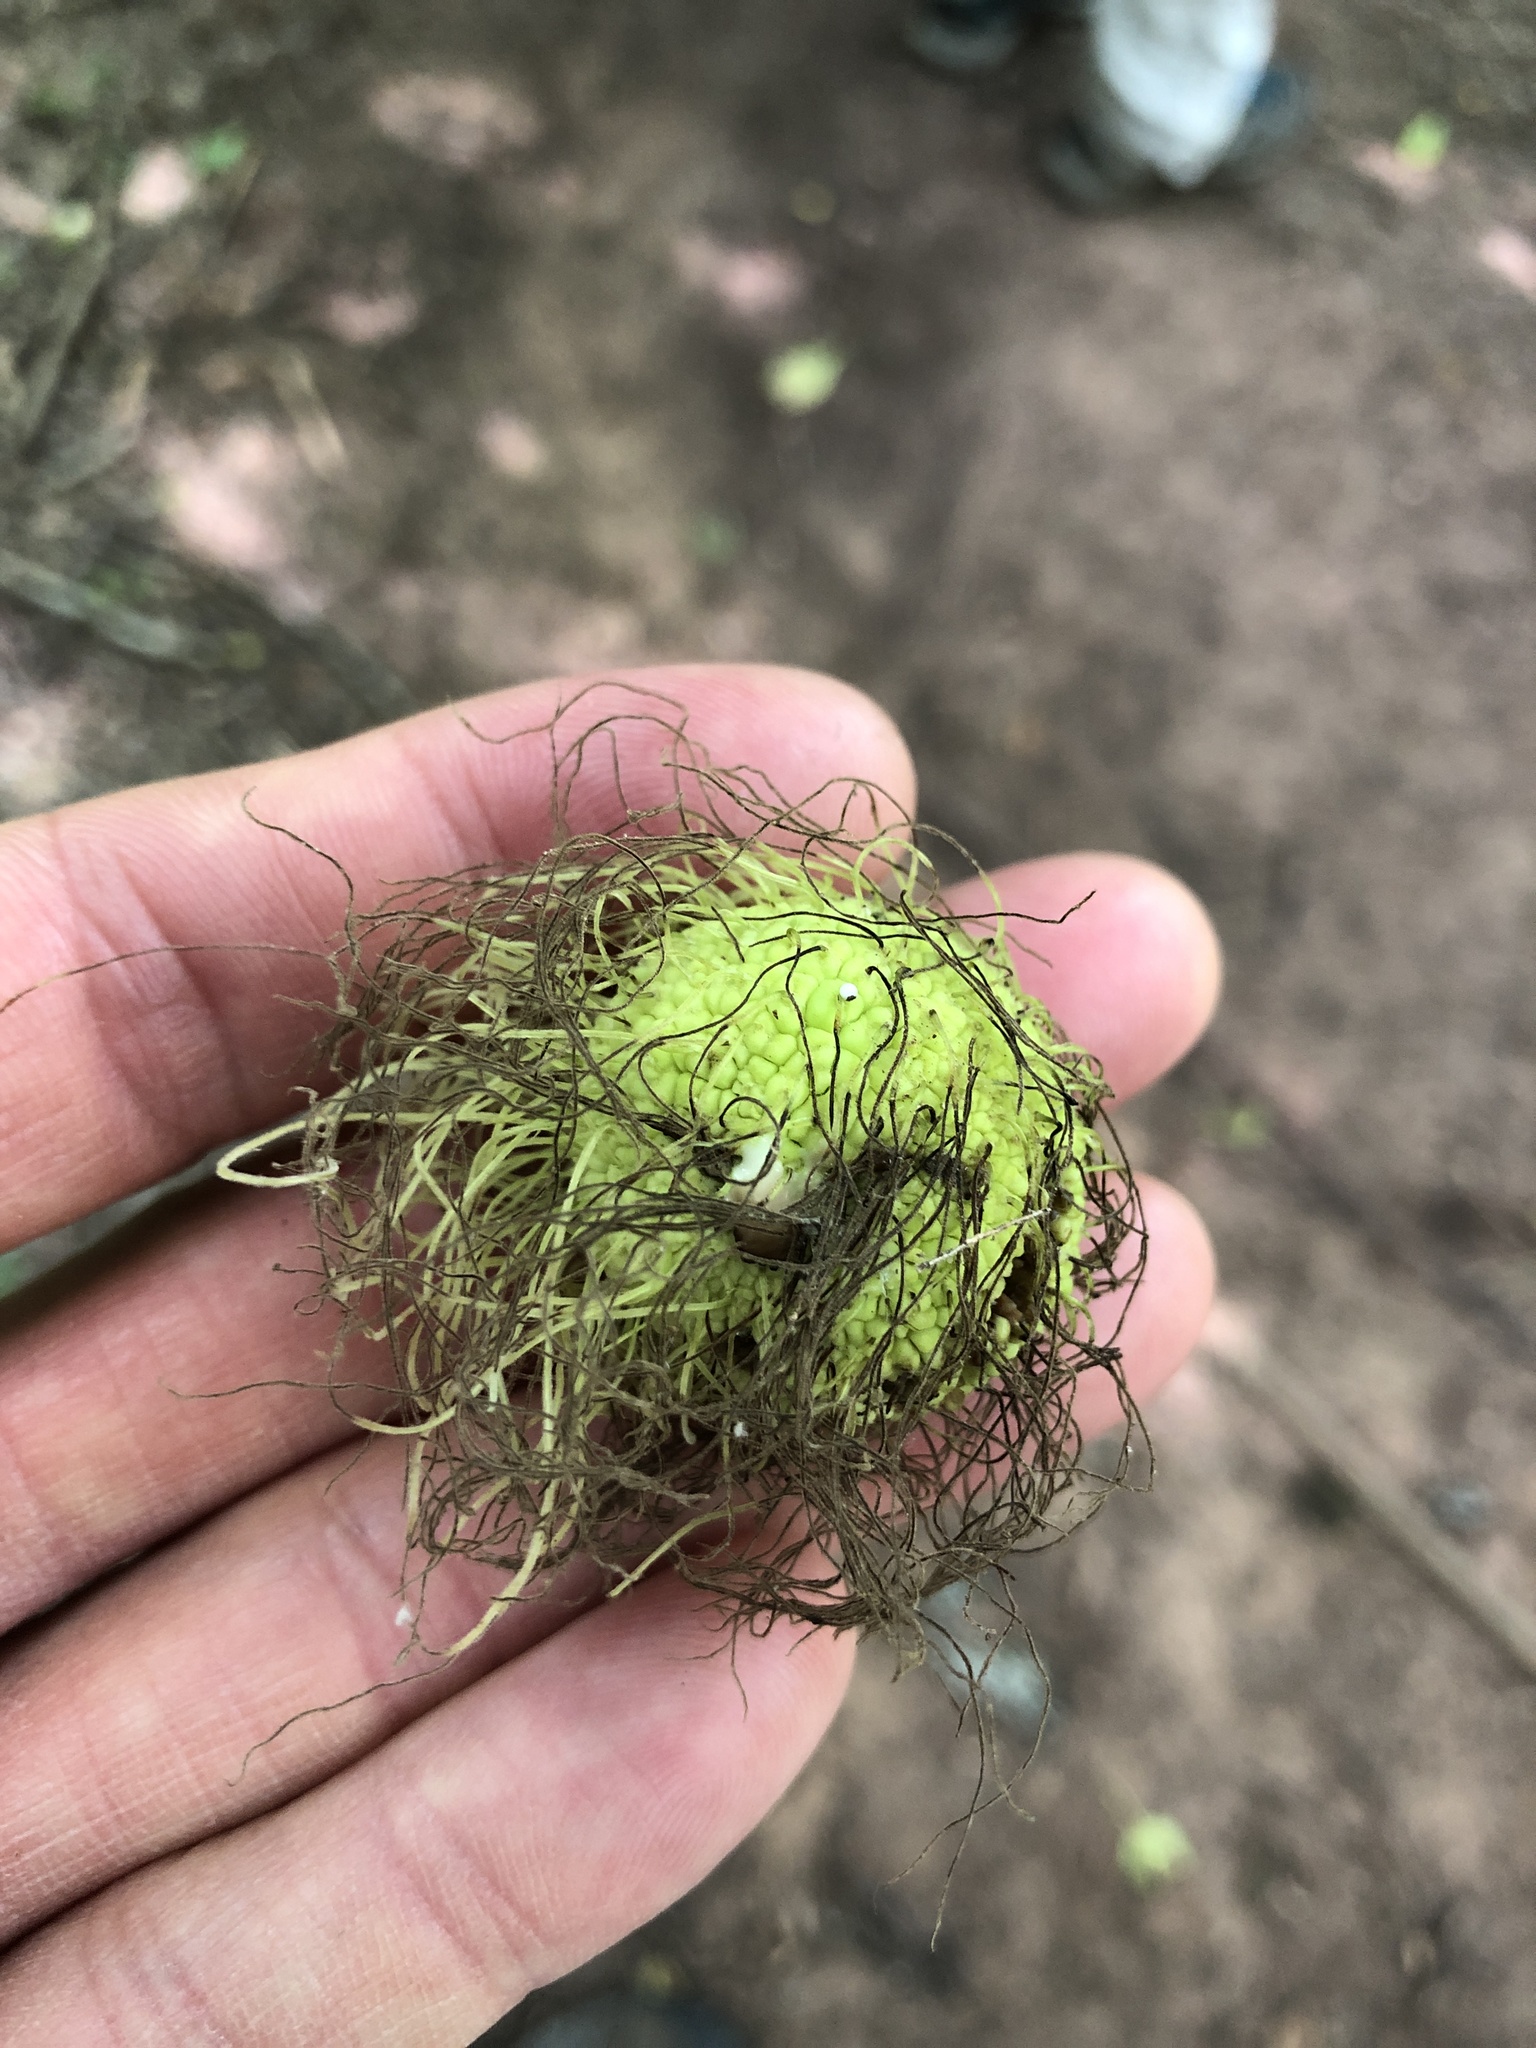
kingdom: Plantae
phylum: Tracheophyta
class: Magnoliopsida
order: Rosales
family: Moraceae
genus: Maclura
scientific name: Maclura pomifera
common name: Osage-orange
